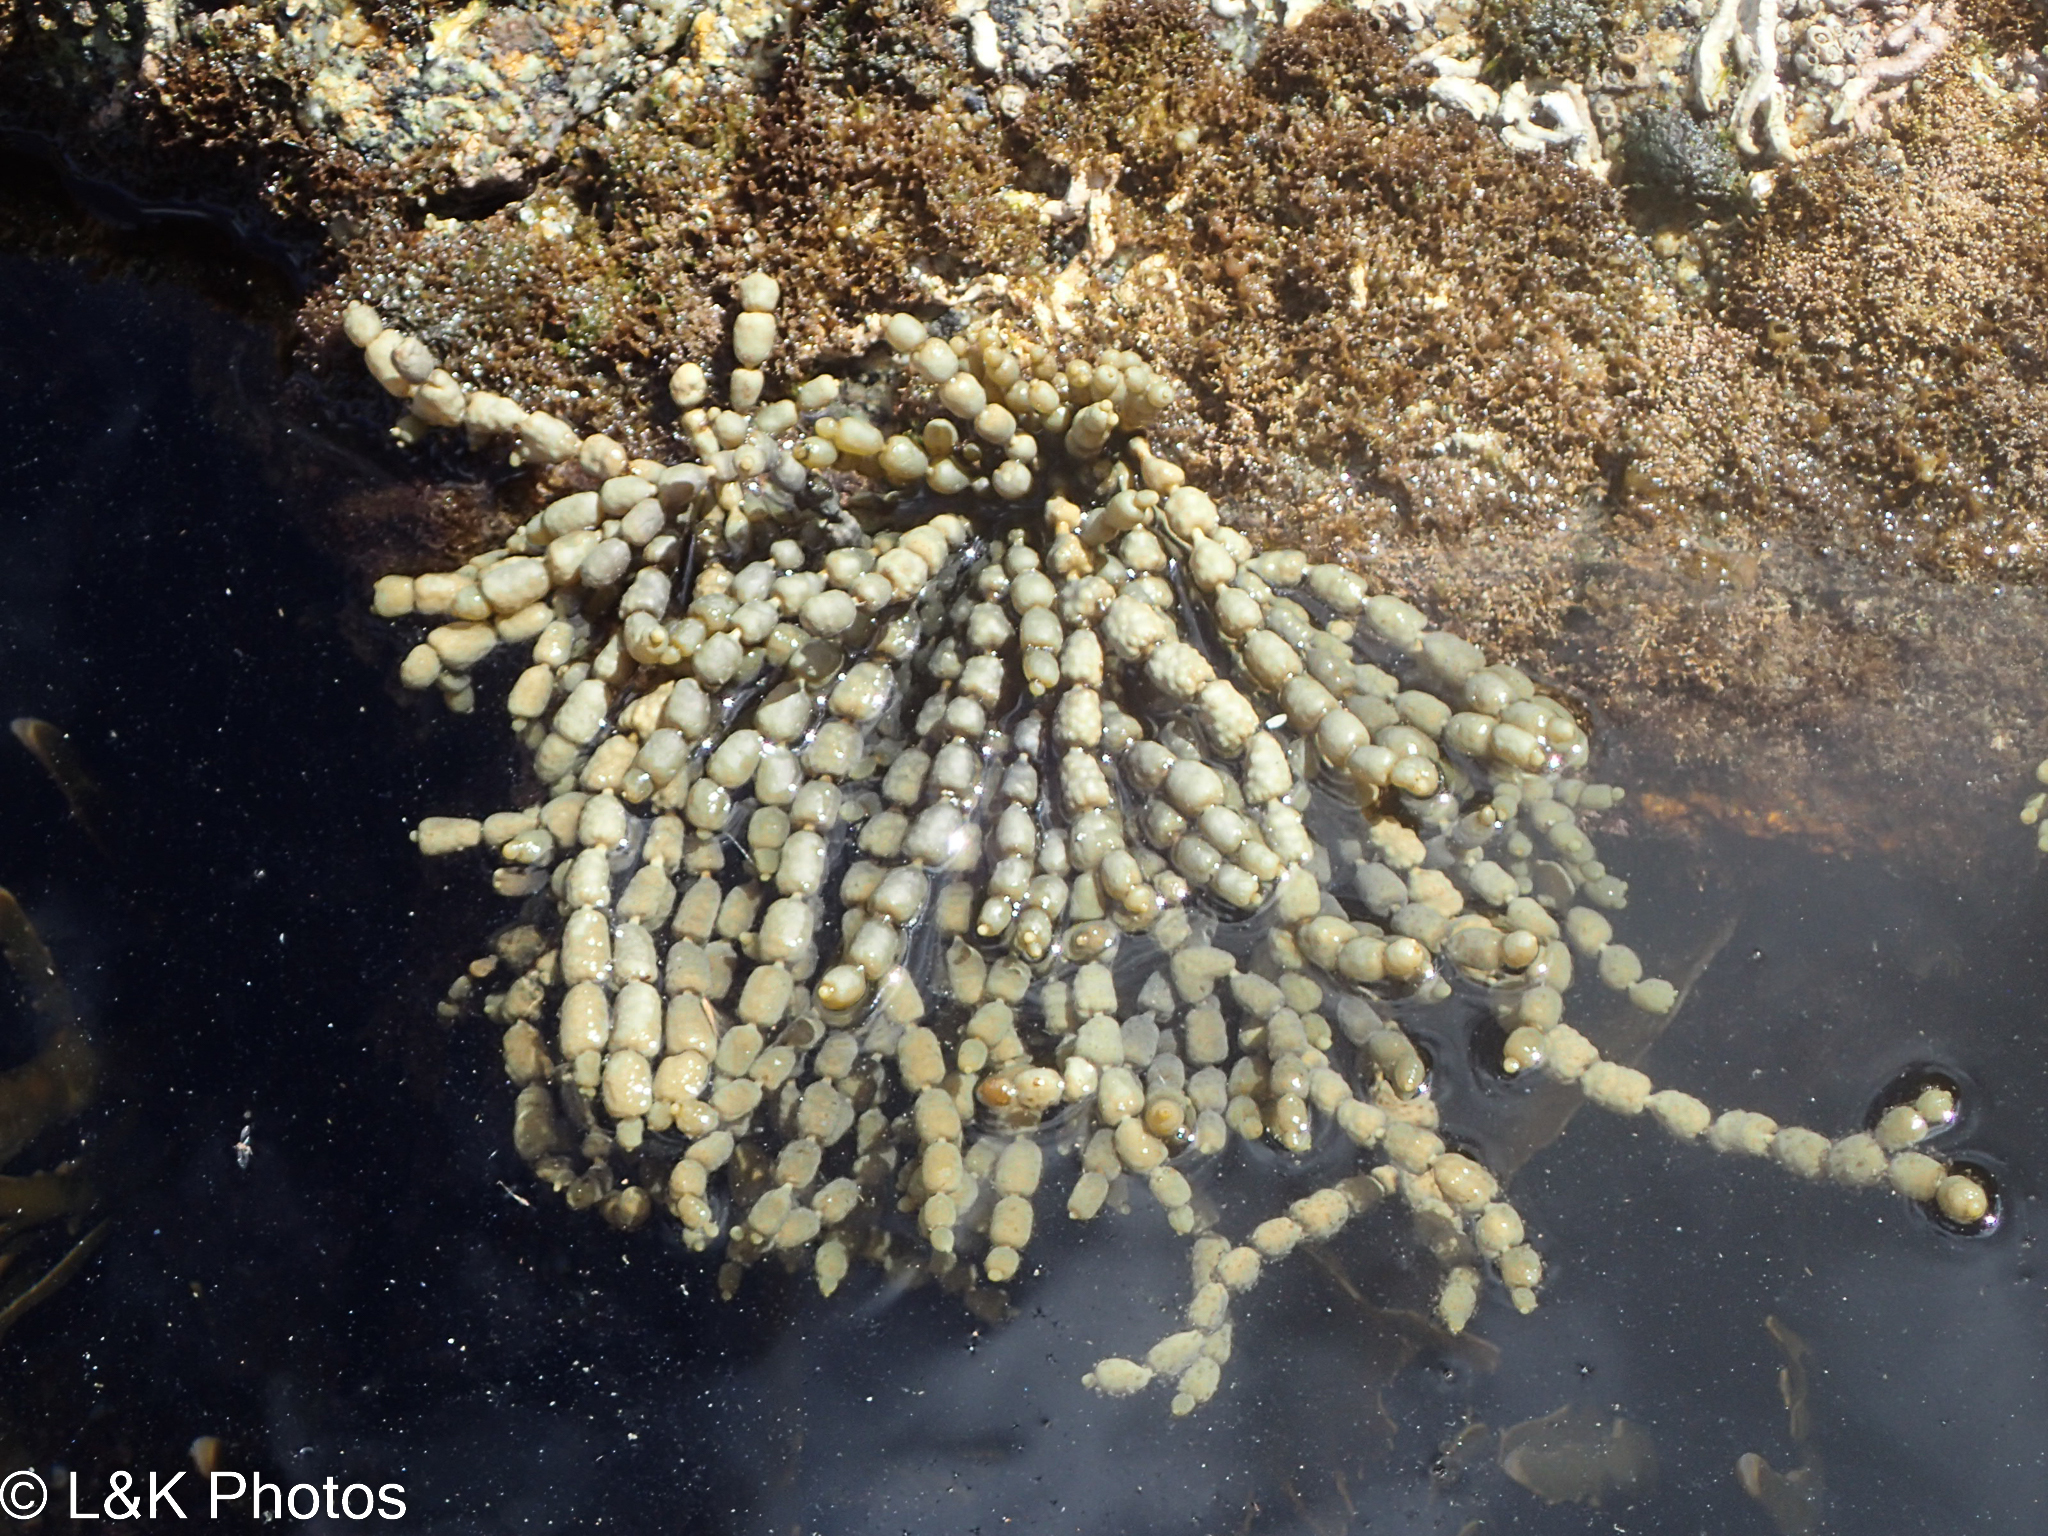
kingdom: Chromista
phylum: Ochrophyta
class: Phaeophyceae
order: Fucales
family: Hormosiraceae
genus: Hormosira
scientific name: Hormosira banksii
